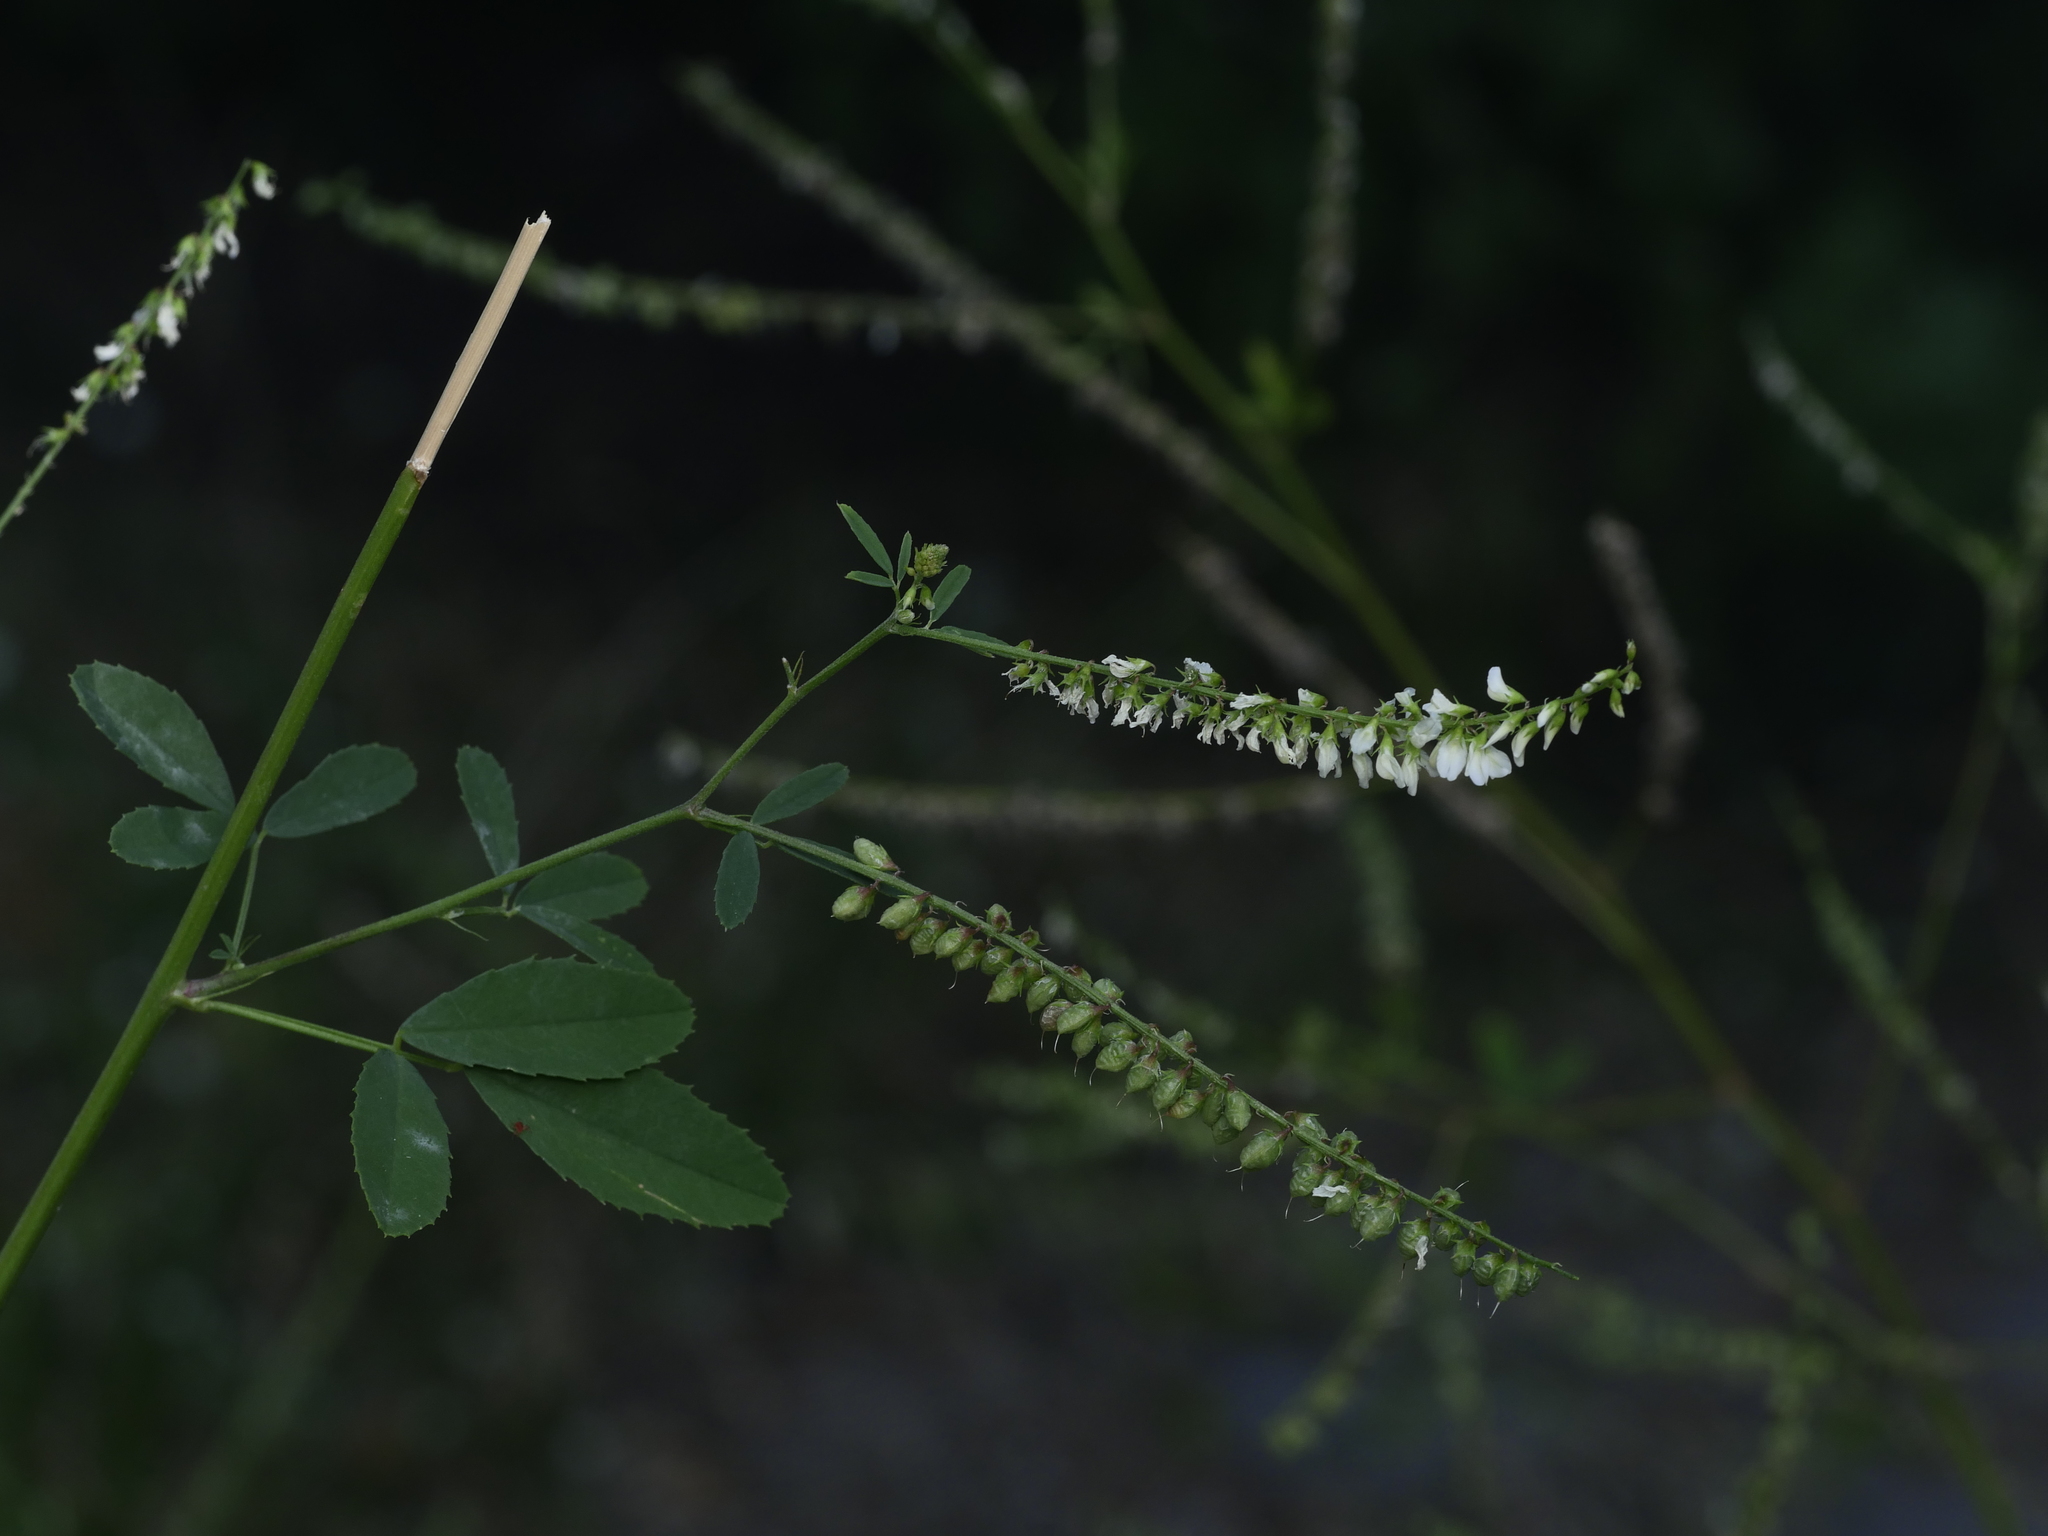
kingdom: Plantae
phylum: Tracheophyta
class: Magnoliopsida
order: Fabales
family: Fabaceae
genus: Melilotus
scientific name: Melilotus albus
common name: White melilot
